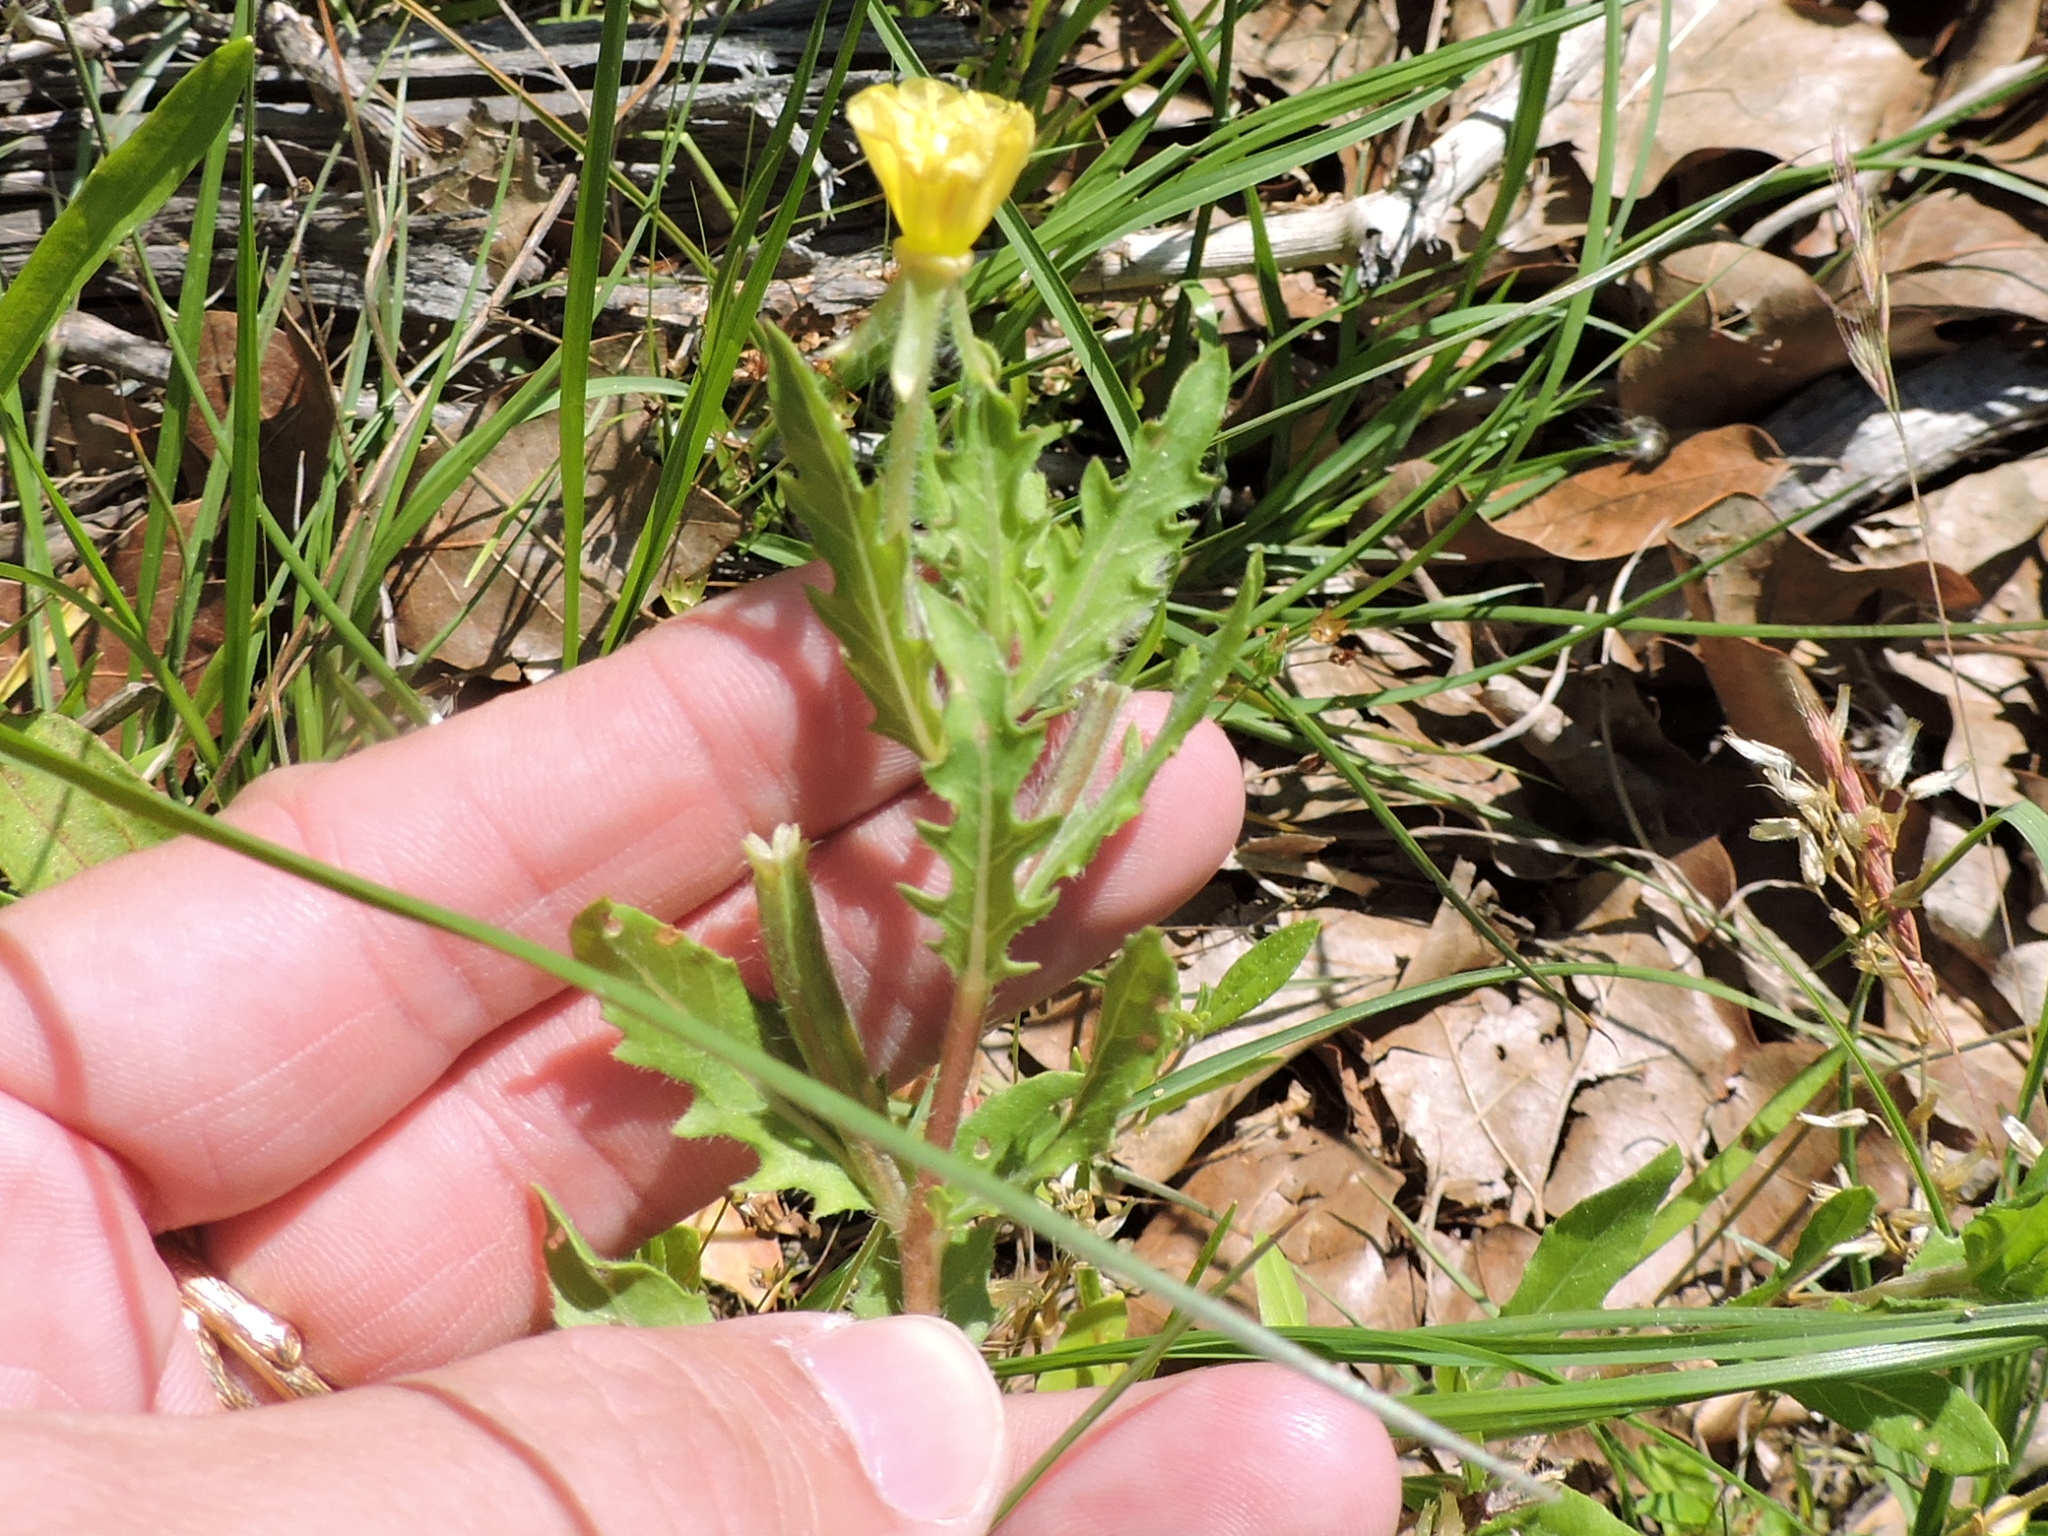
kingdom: Plantae
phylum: Tracheophyta
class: Magnoliopsida
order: Myrtales
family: Onagraceae
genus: Oenothera
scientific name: Oenothera laciniata
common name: Cut-leaved evening-primrose
